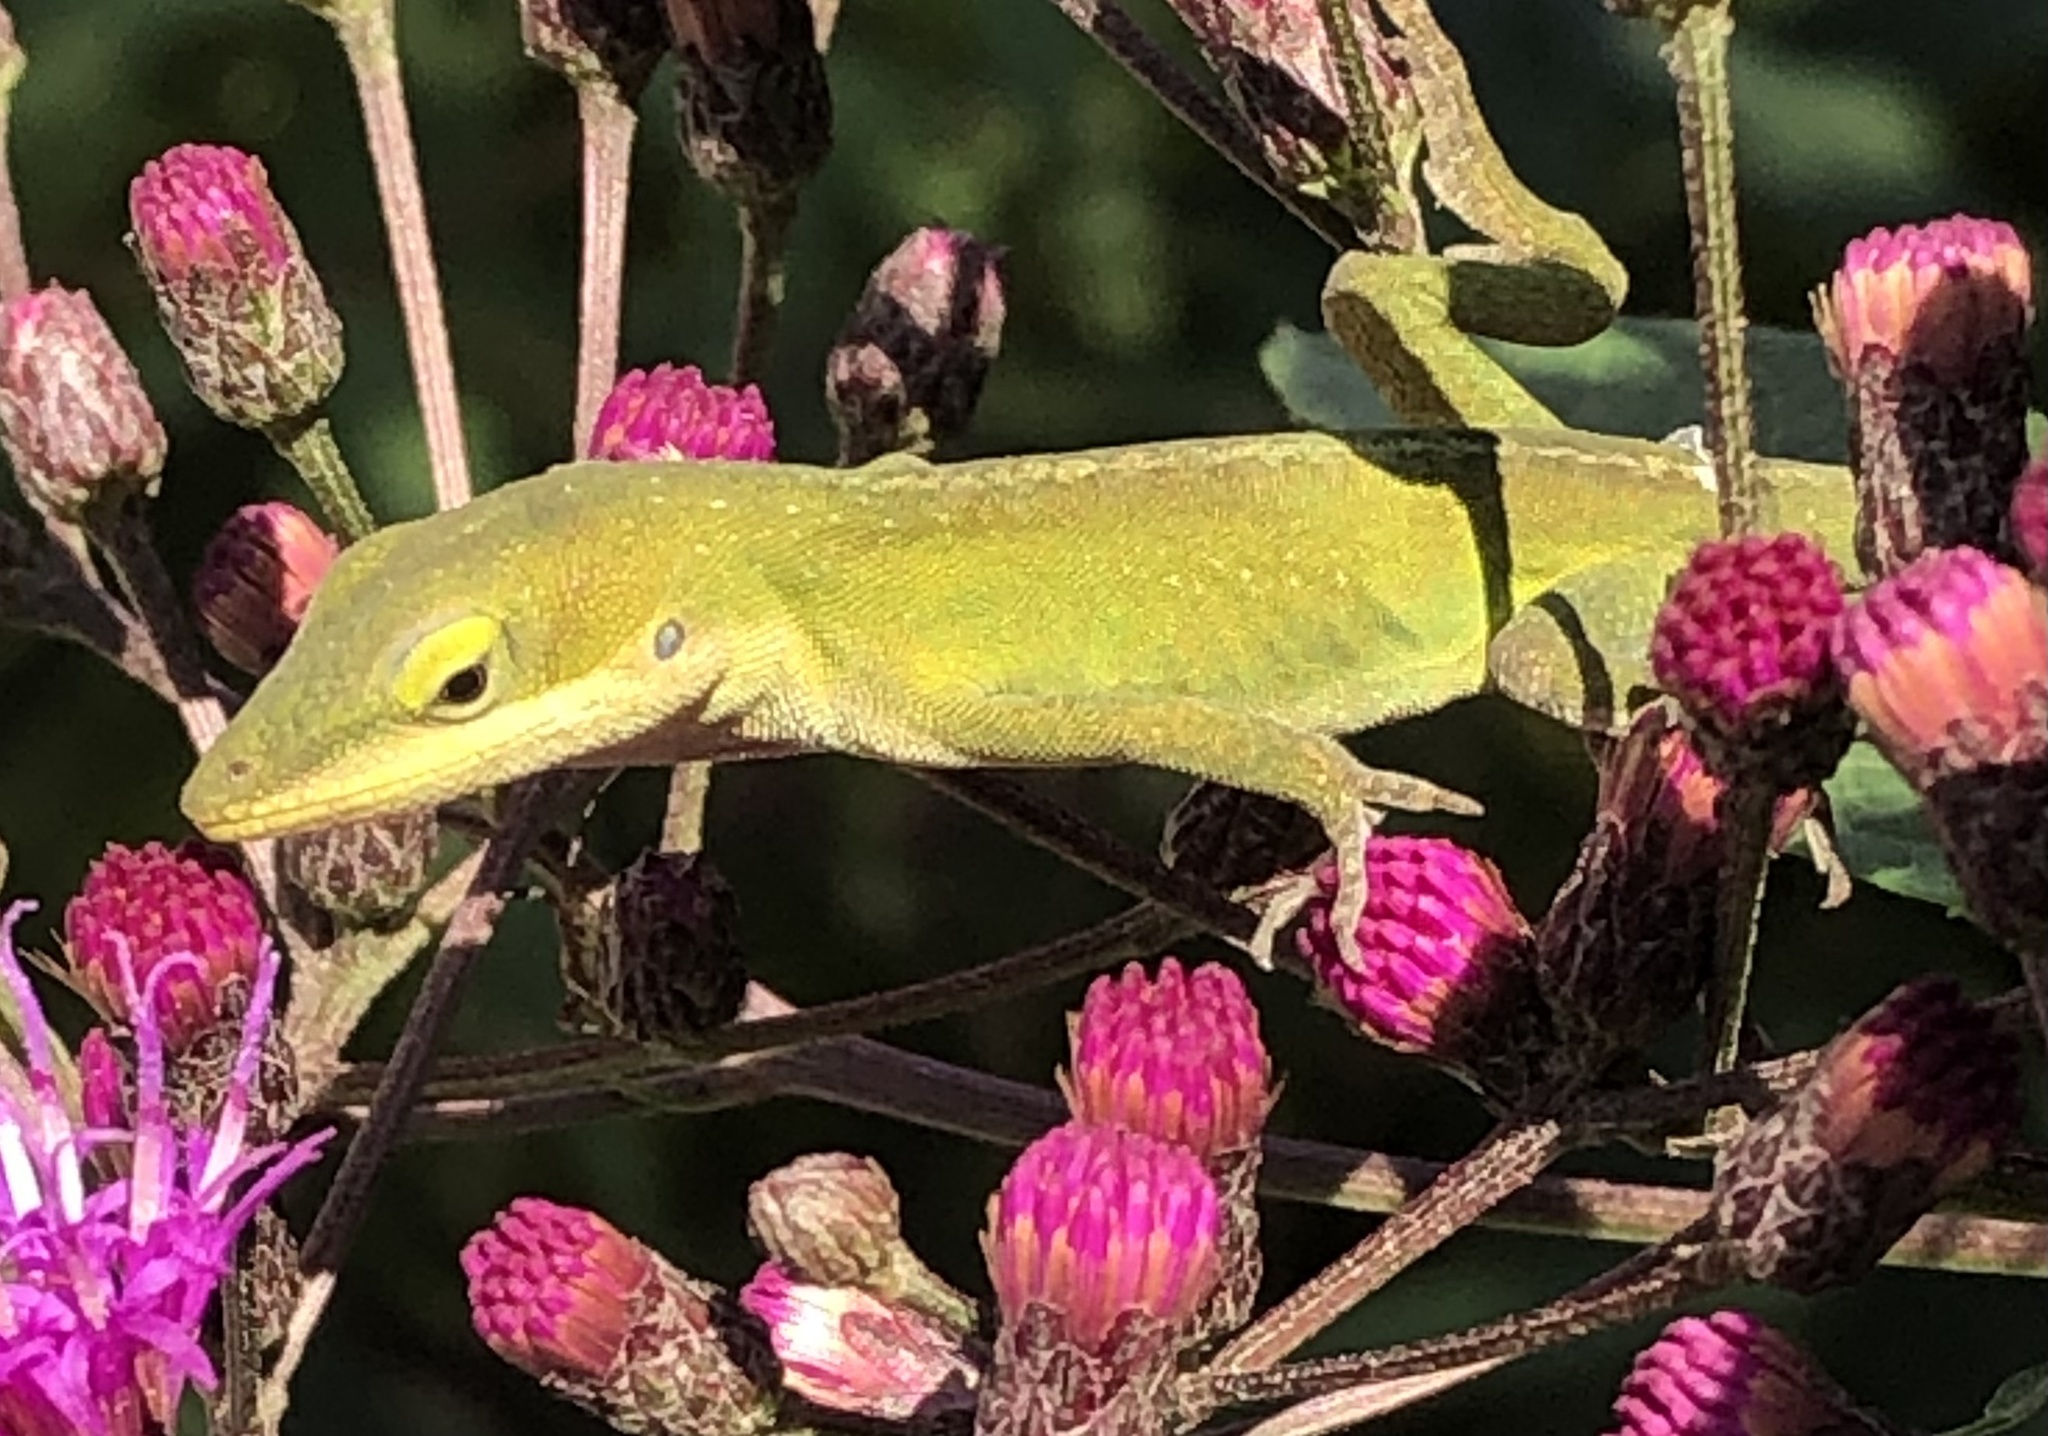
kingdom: Animalia
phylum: Chordata
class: Squamata
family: Dactyloidae
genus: Anolis
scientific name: Anolis carolinensis
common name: Green anole
